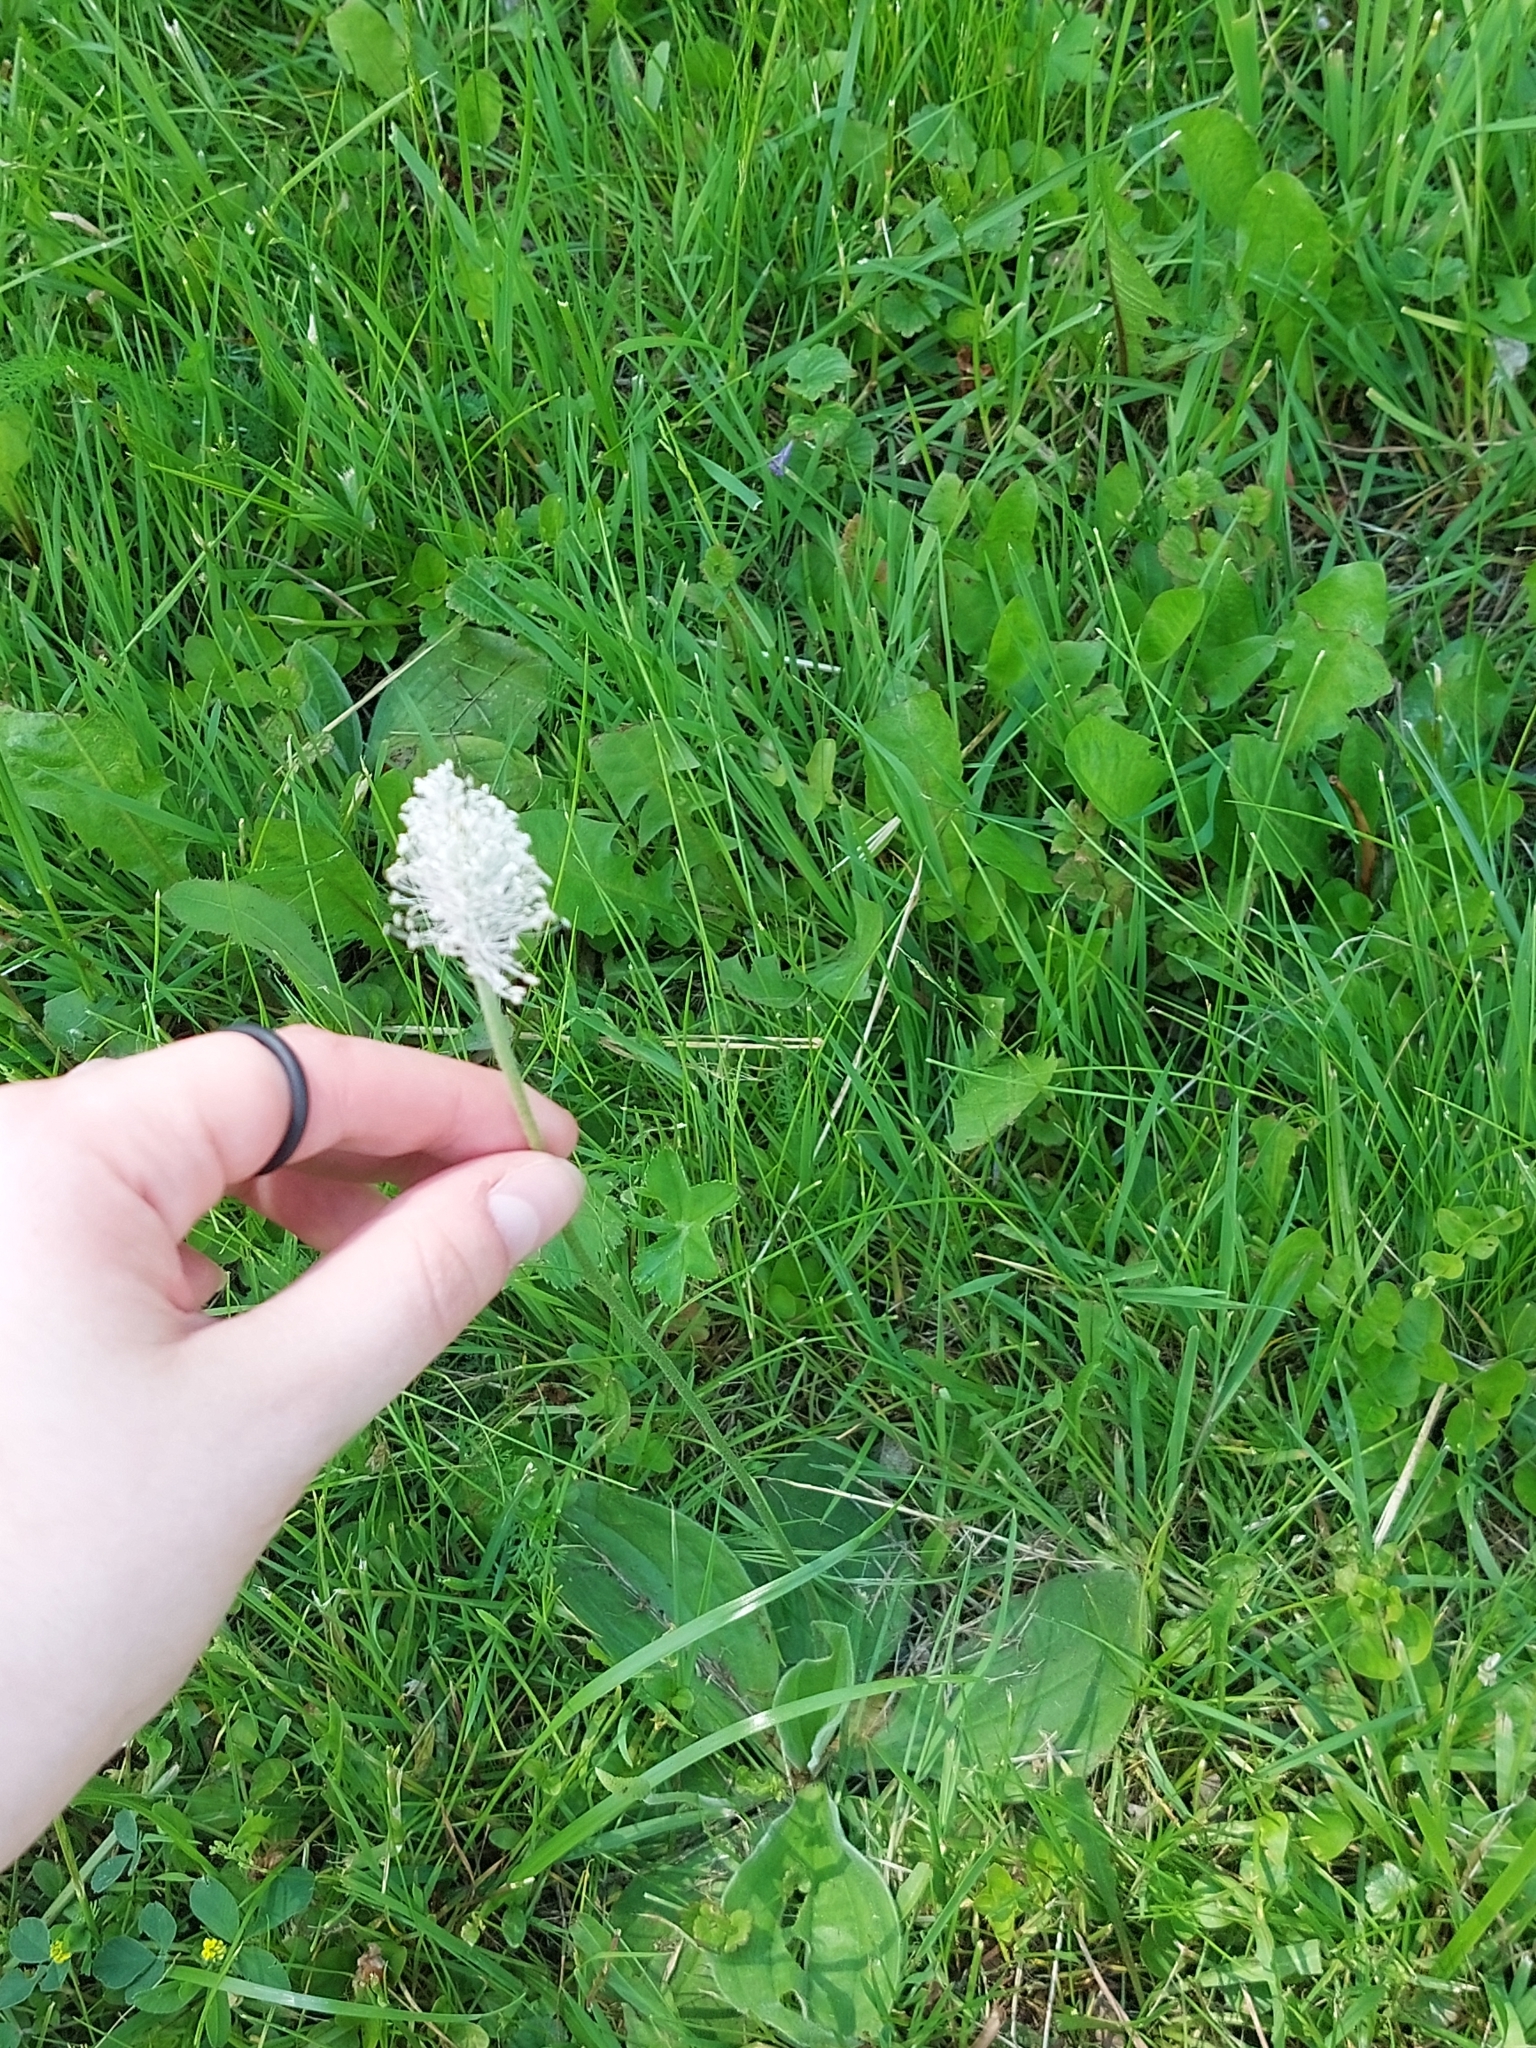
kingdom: Plantae
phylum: Tracheophyta
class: Magnoliopsida
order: Lamiales
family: Plantaginaceae
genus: Plantago
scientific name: Plantago media
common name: Hoary plantain
